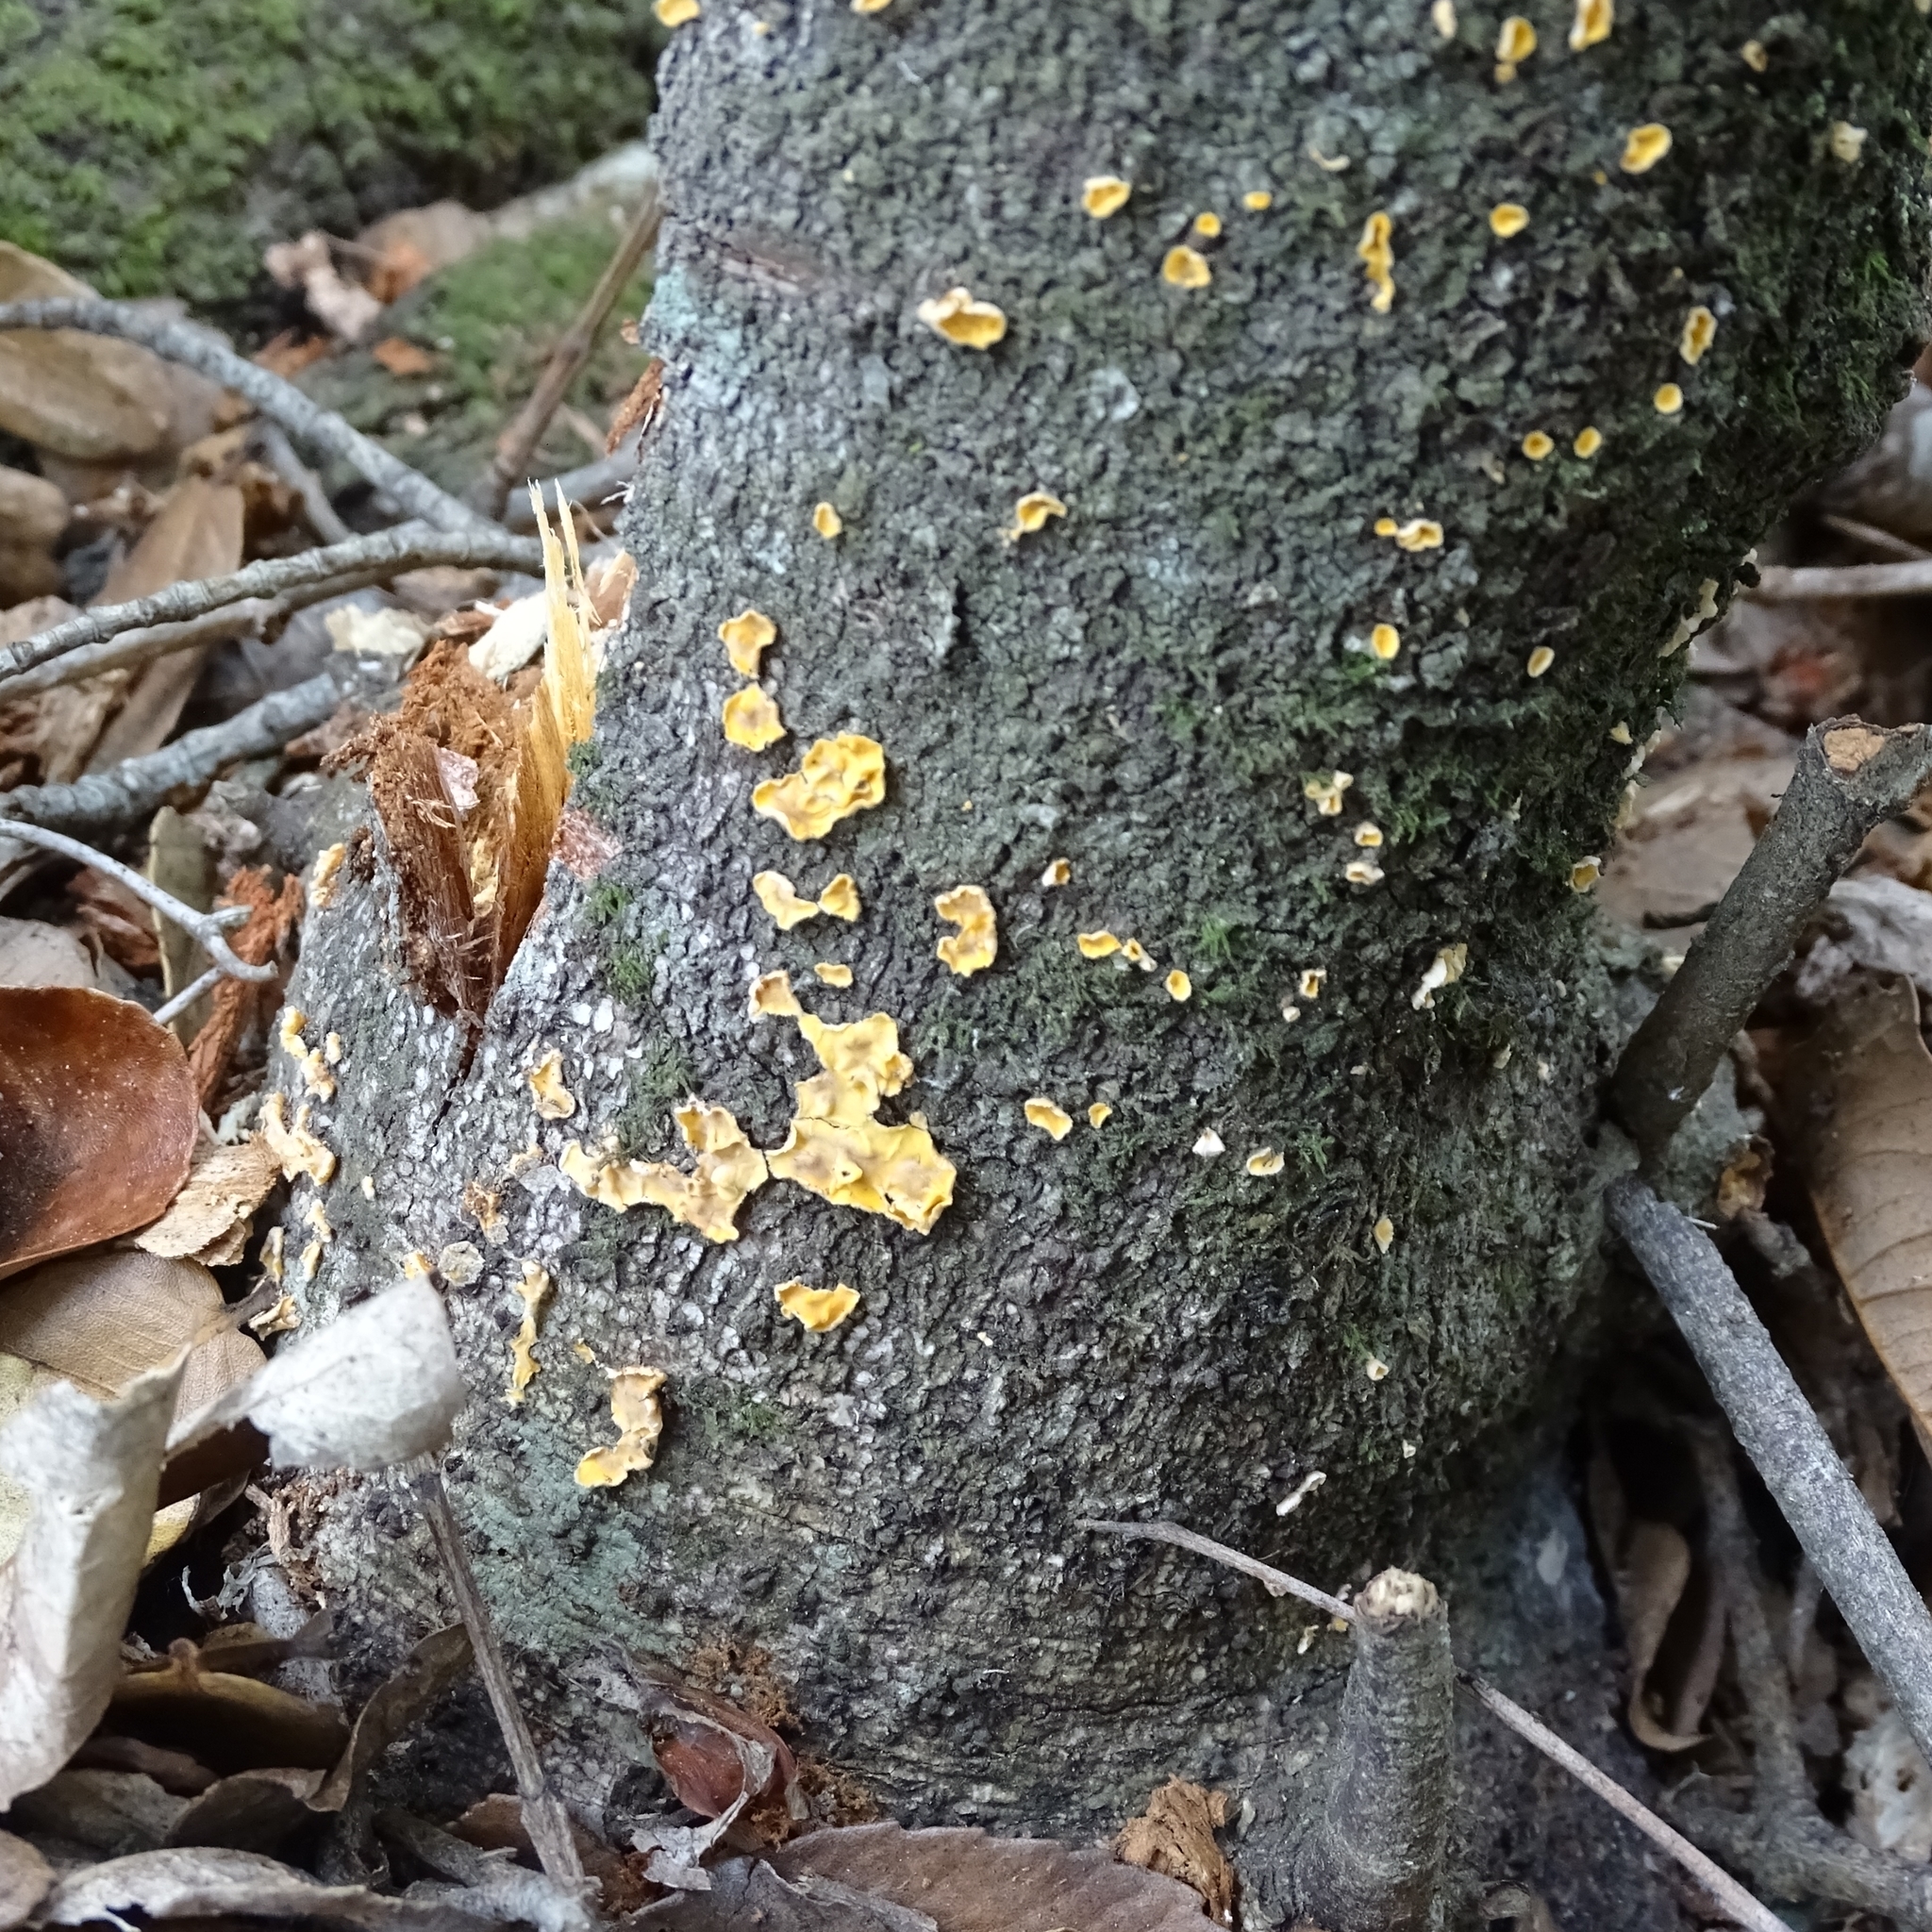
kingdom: Fungi
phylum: Basidiomycota
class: Agaricomycetes
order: Russulales
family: Stereaceae
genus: Stereodiscus
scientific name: Stereodiscus patagonicus
